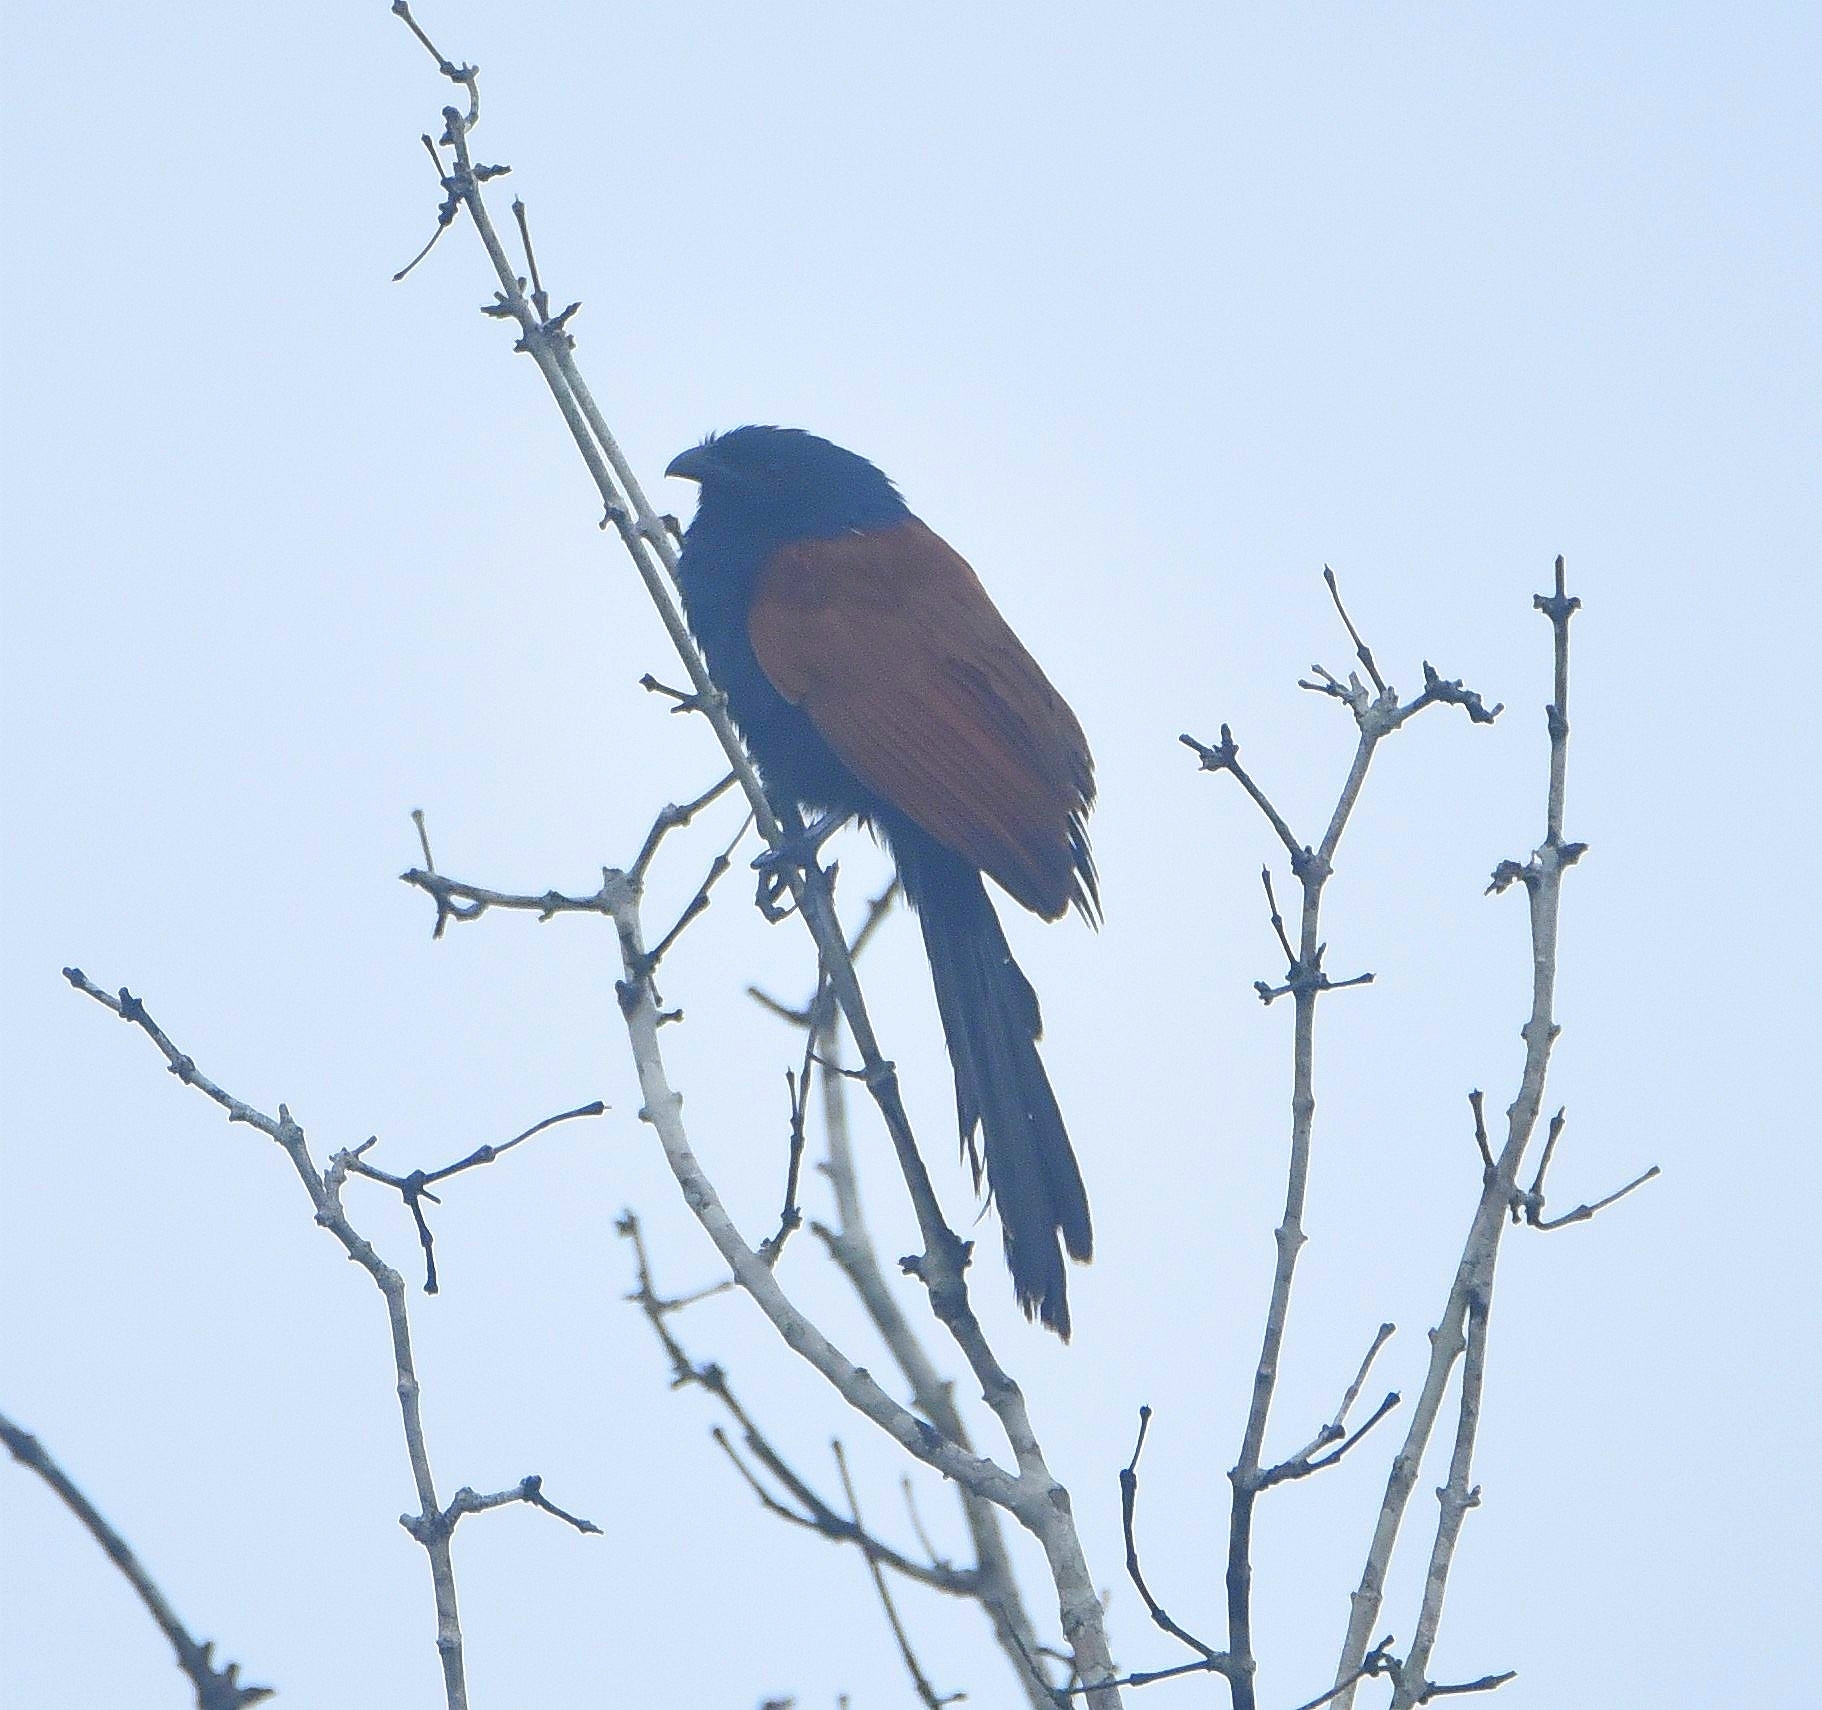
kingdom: Animalia
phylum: Chordata
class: Aves
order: Cuculiformes
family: Cuculidae
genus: Centropus
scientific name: Centropus bengalensis
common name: Lesser coucal
